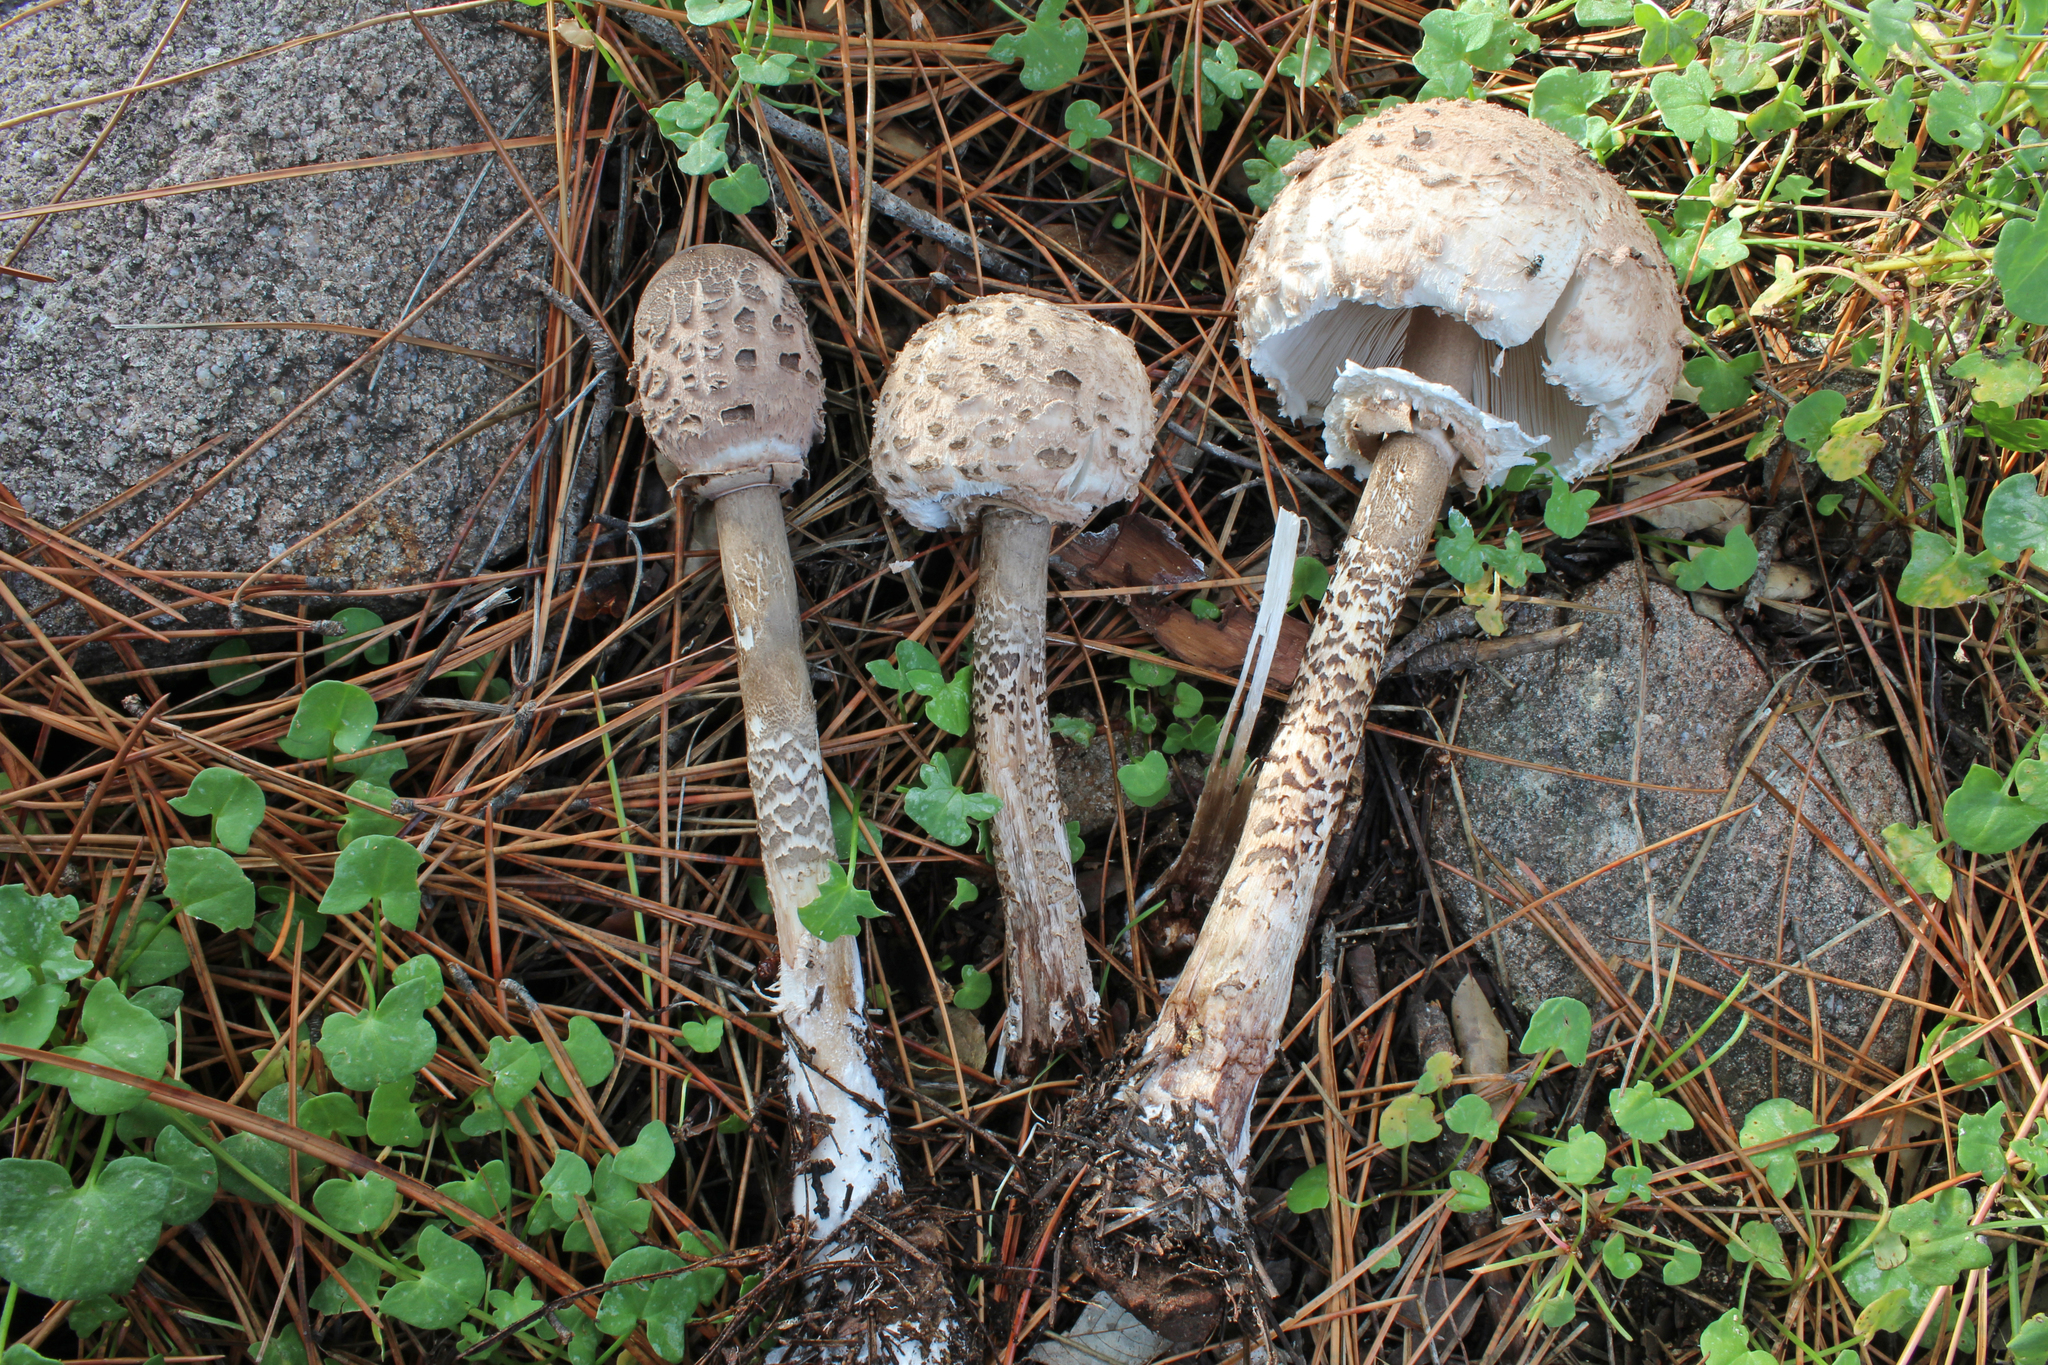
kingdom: Fungi
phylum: Basidiomycota
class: Agaricomycetes
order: Agaricales
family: Agaricaceae
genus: Macrolepiota
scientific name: Macrolepiota procera
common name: Parasol
